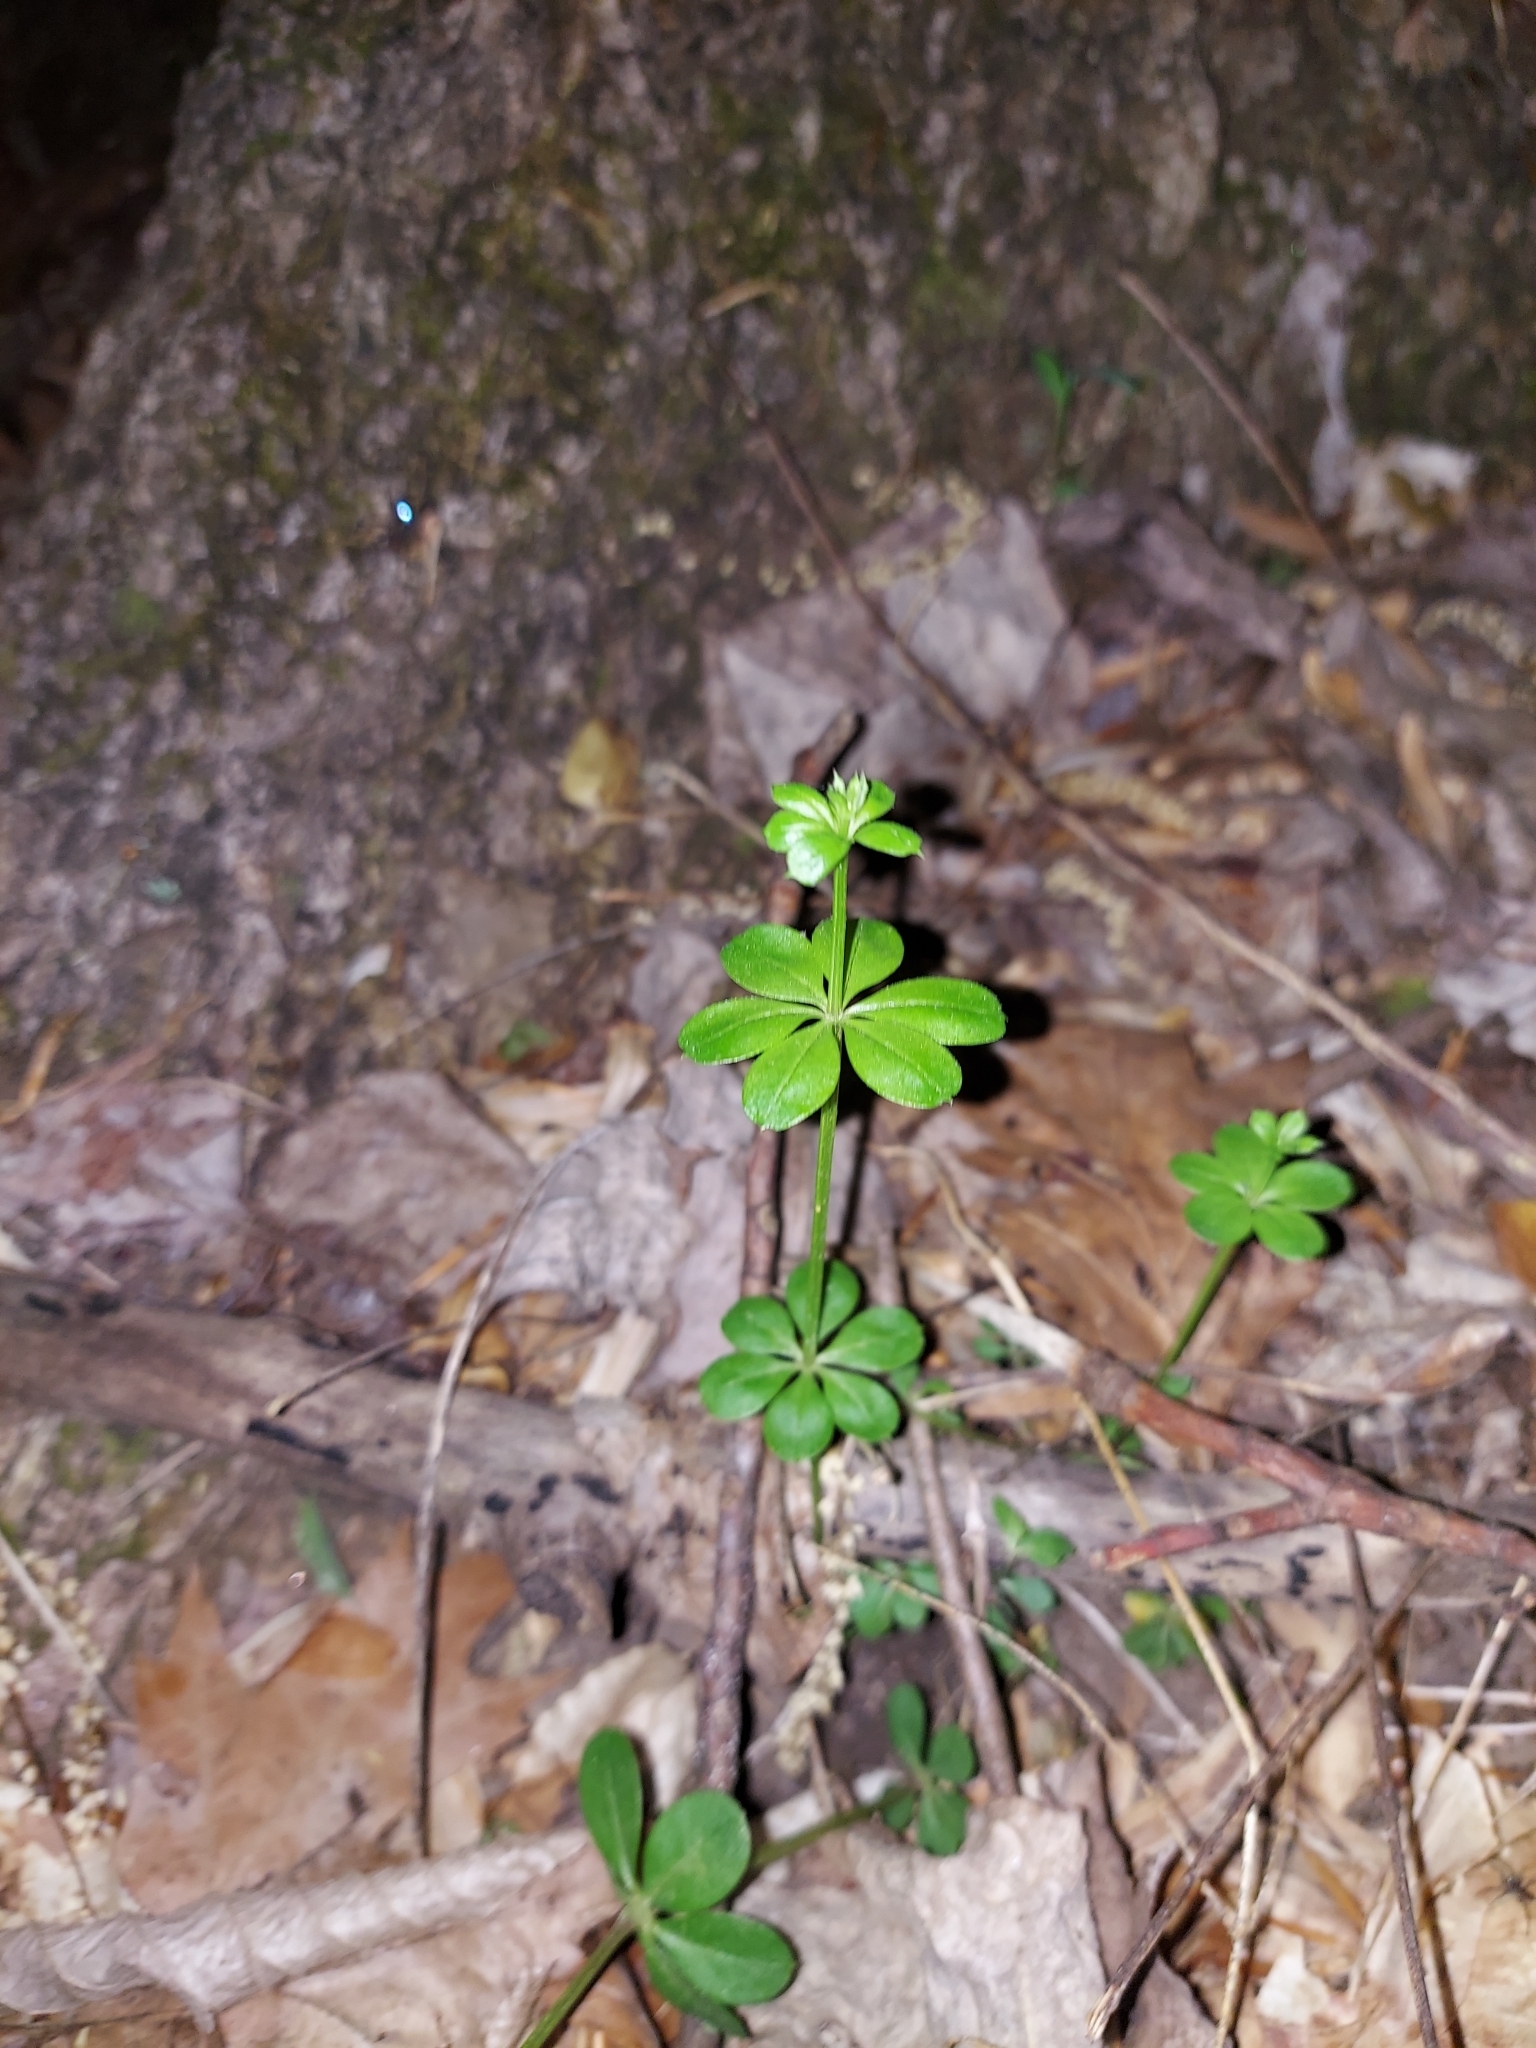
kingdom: Plantae
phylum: Tracheophyta
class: Magnoliopsida
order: Gentianales
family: Rubiaceae
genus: Galium
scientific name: Galium triflorum
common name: Fragrant bedstraw
